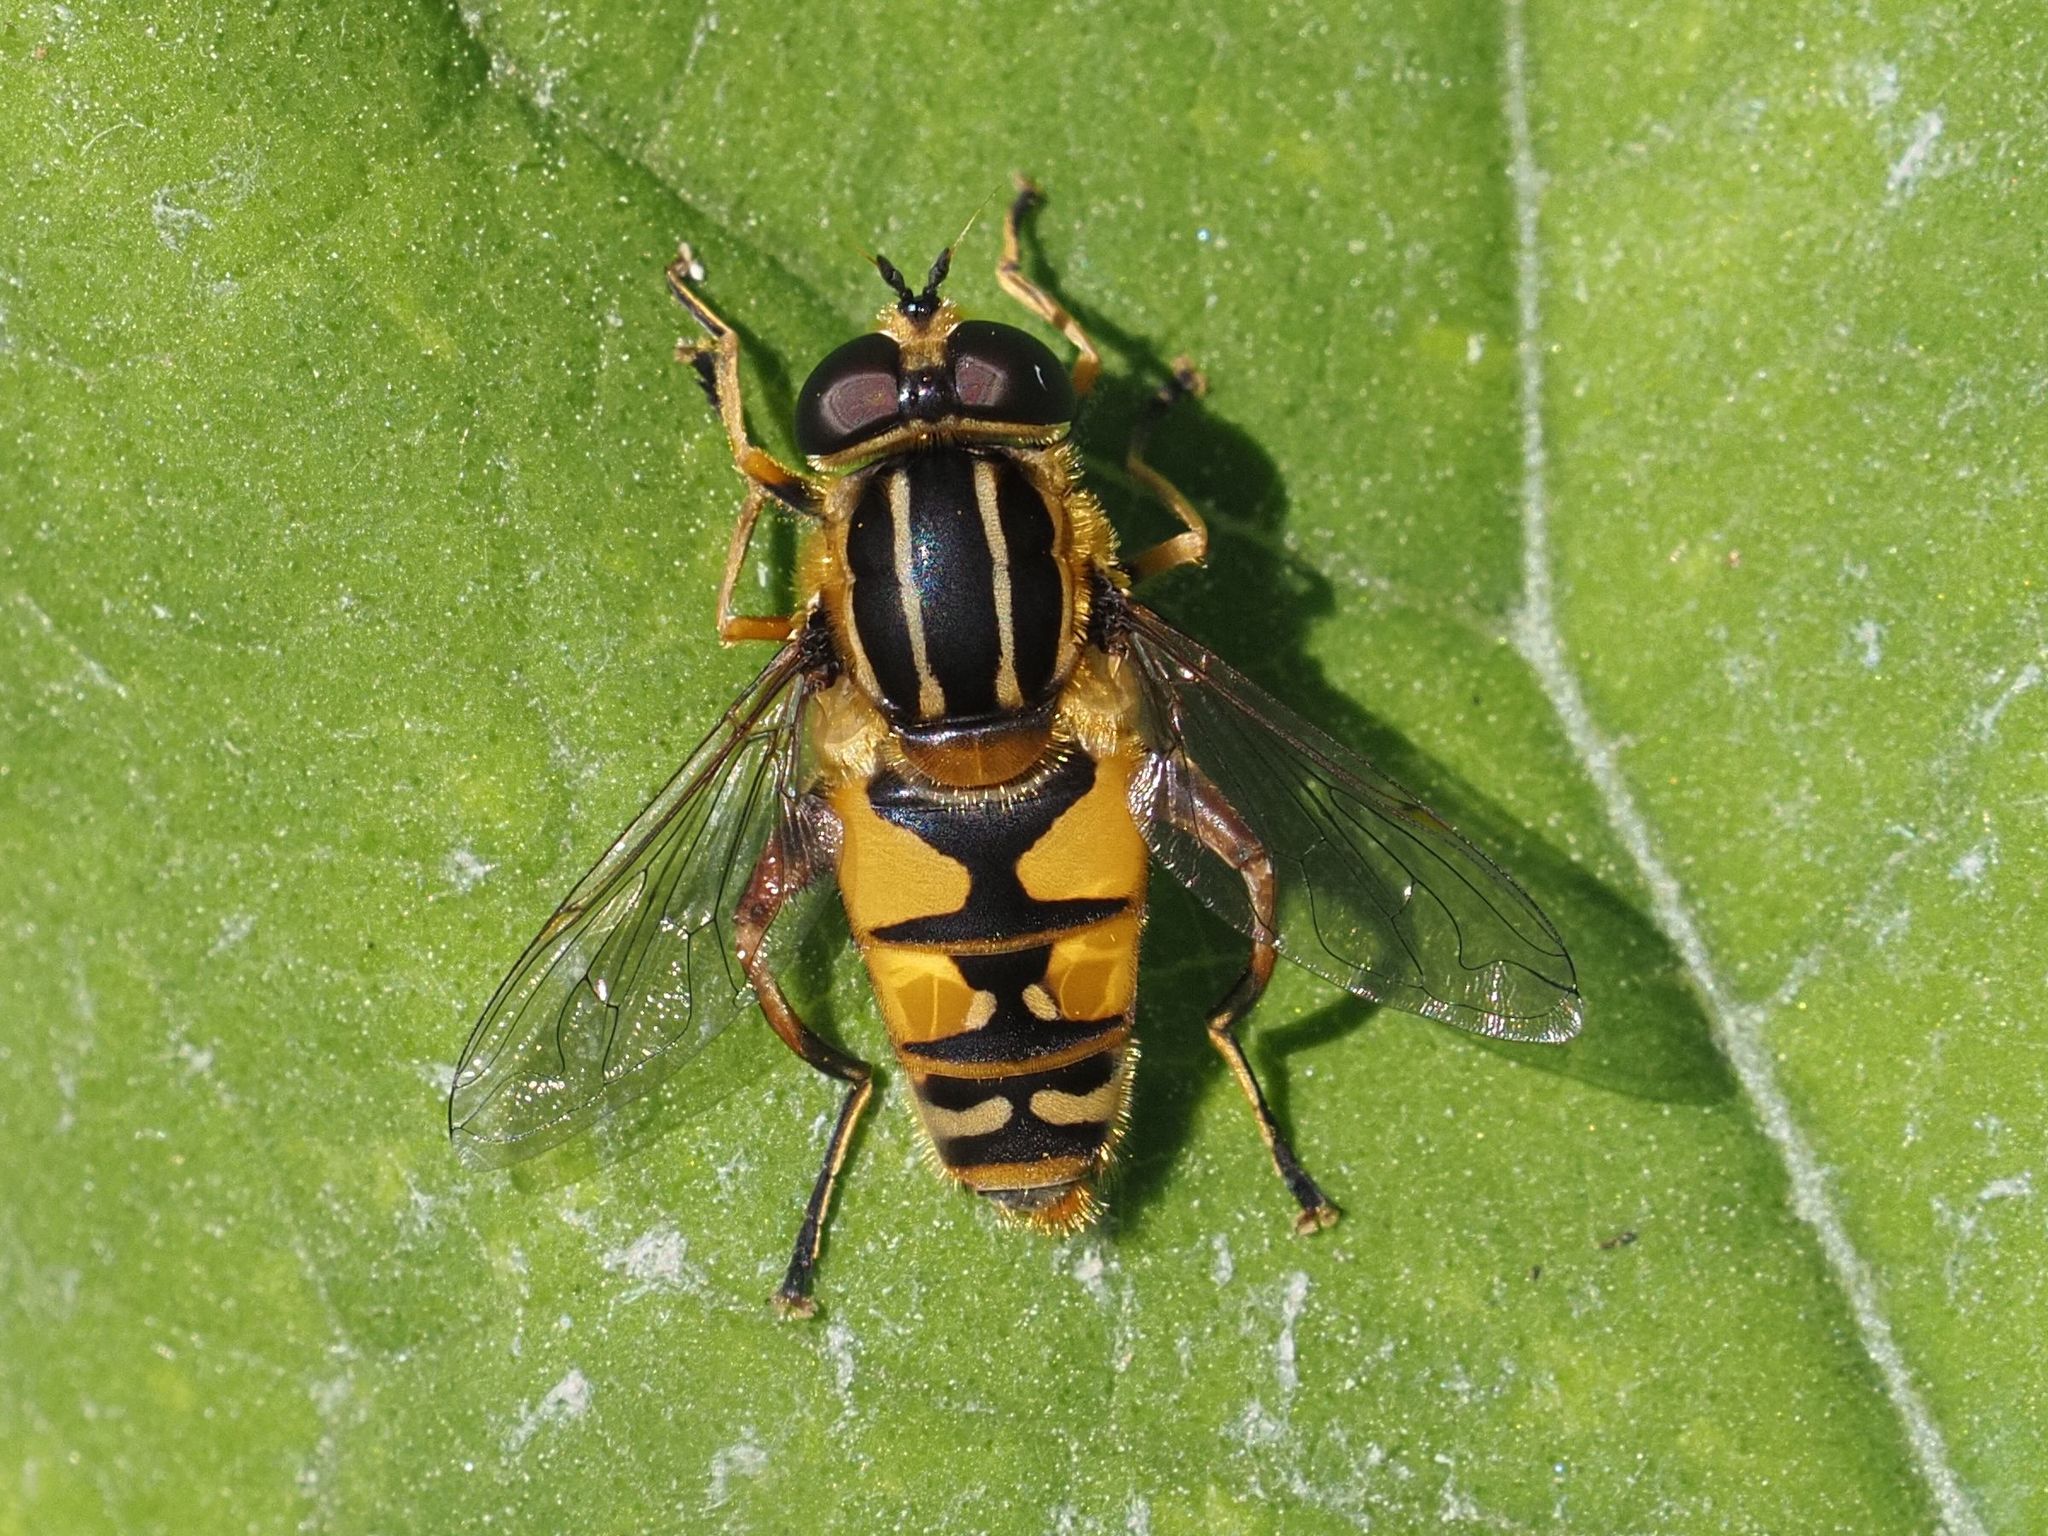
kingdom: Animalia
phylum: Arthropoda
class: Insecta
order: Diptera
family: Syrphidae
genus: Helophilus
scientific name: Helophilus pendulus
